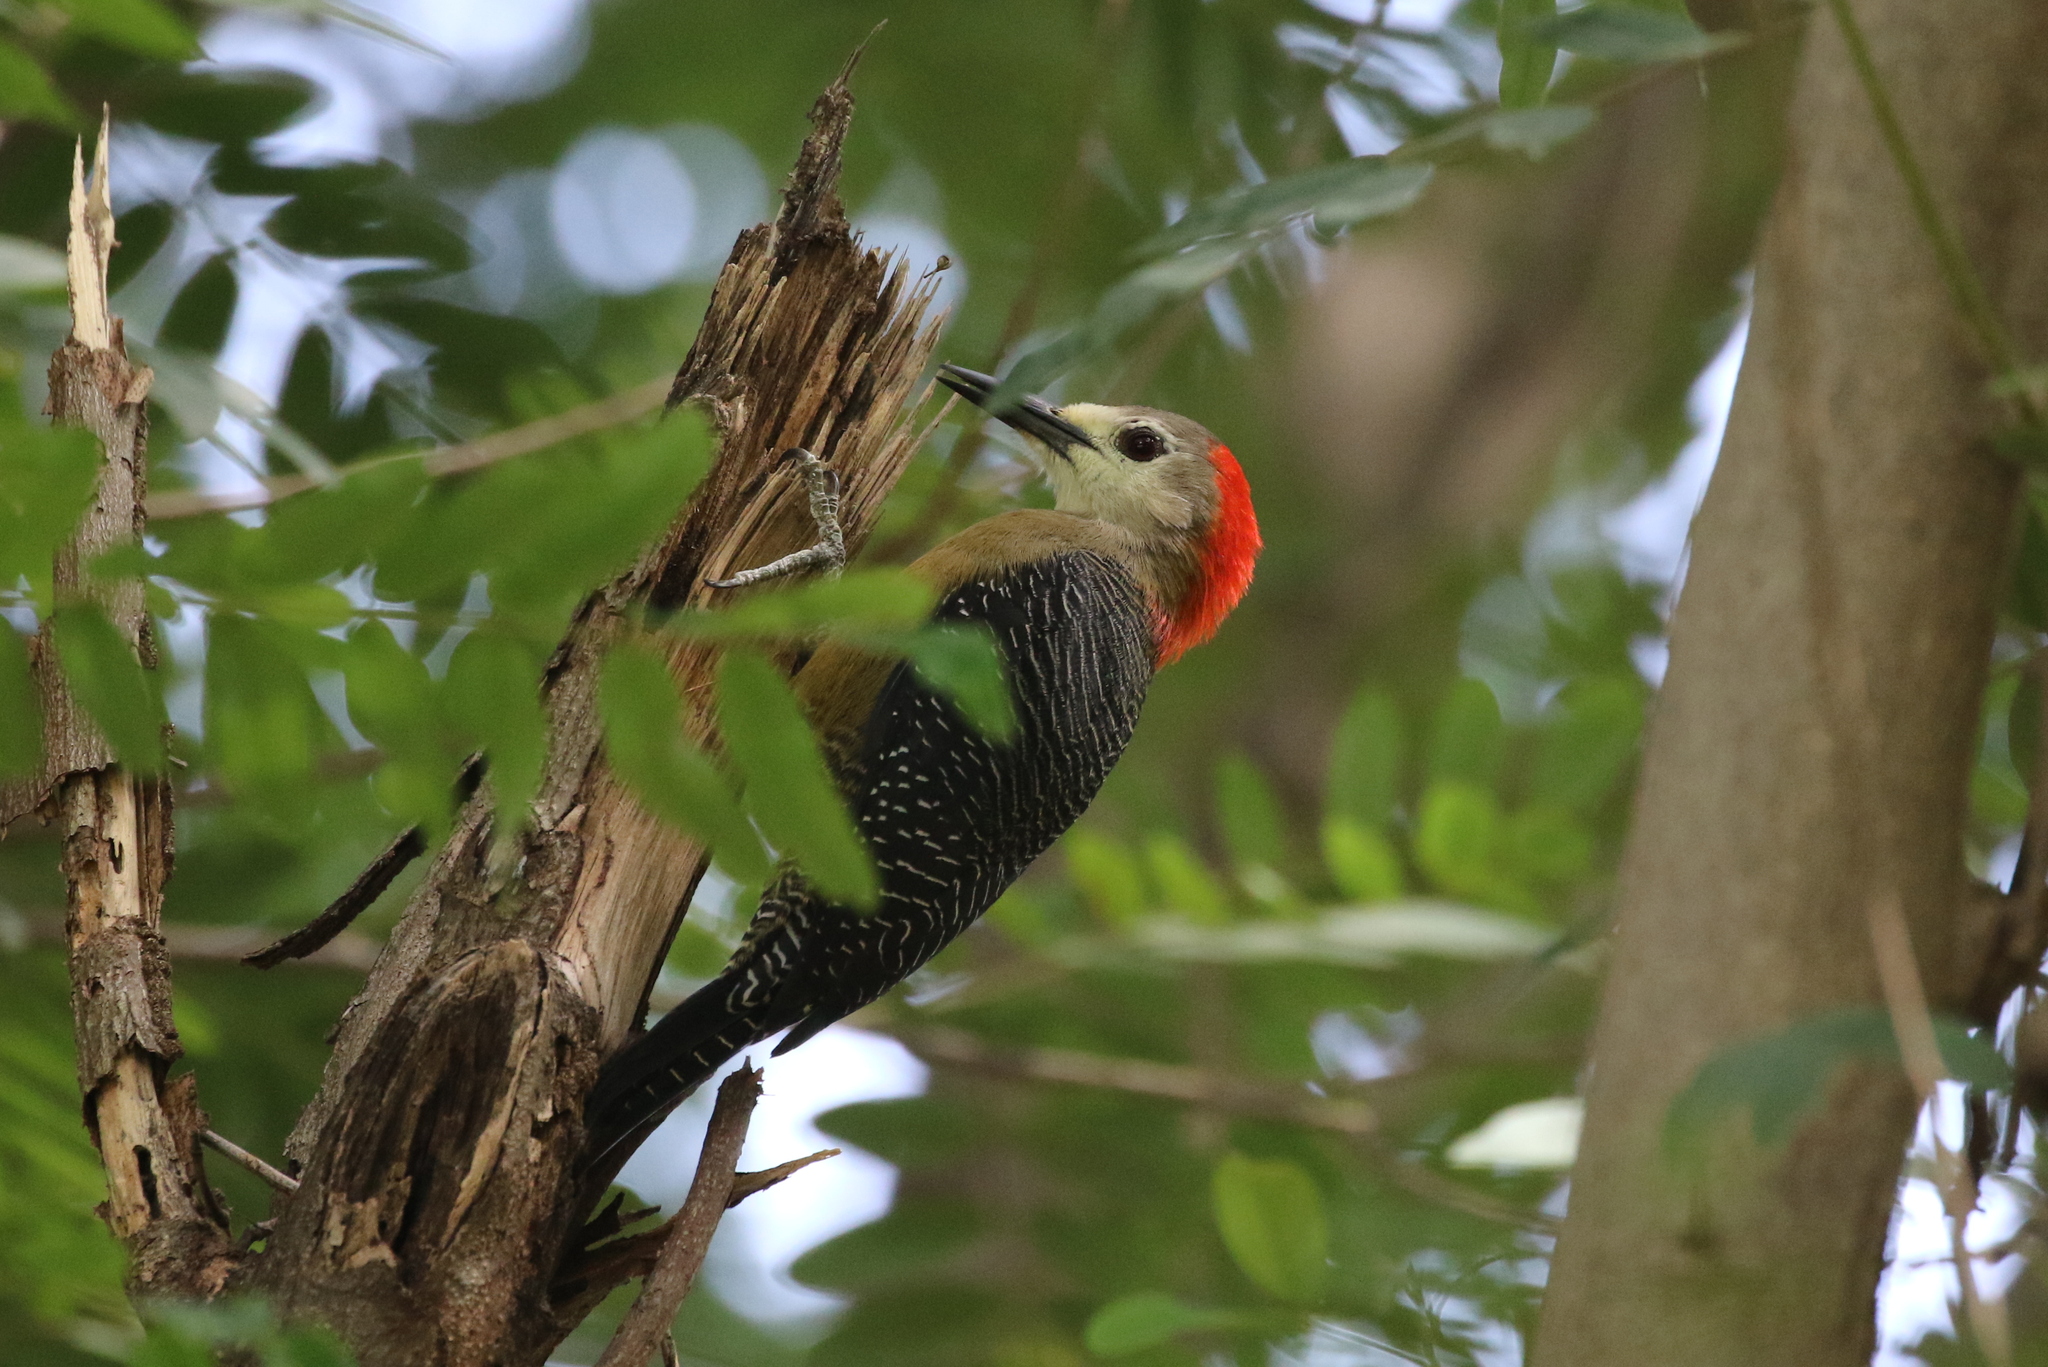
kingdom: Animalia
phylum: Chordata
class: Aves
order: Piciformes
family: Picidae
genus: Melanerpes
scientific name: Melanerpes radiolatus
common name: Jamaican woodpecker
